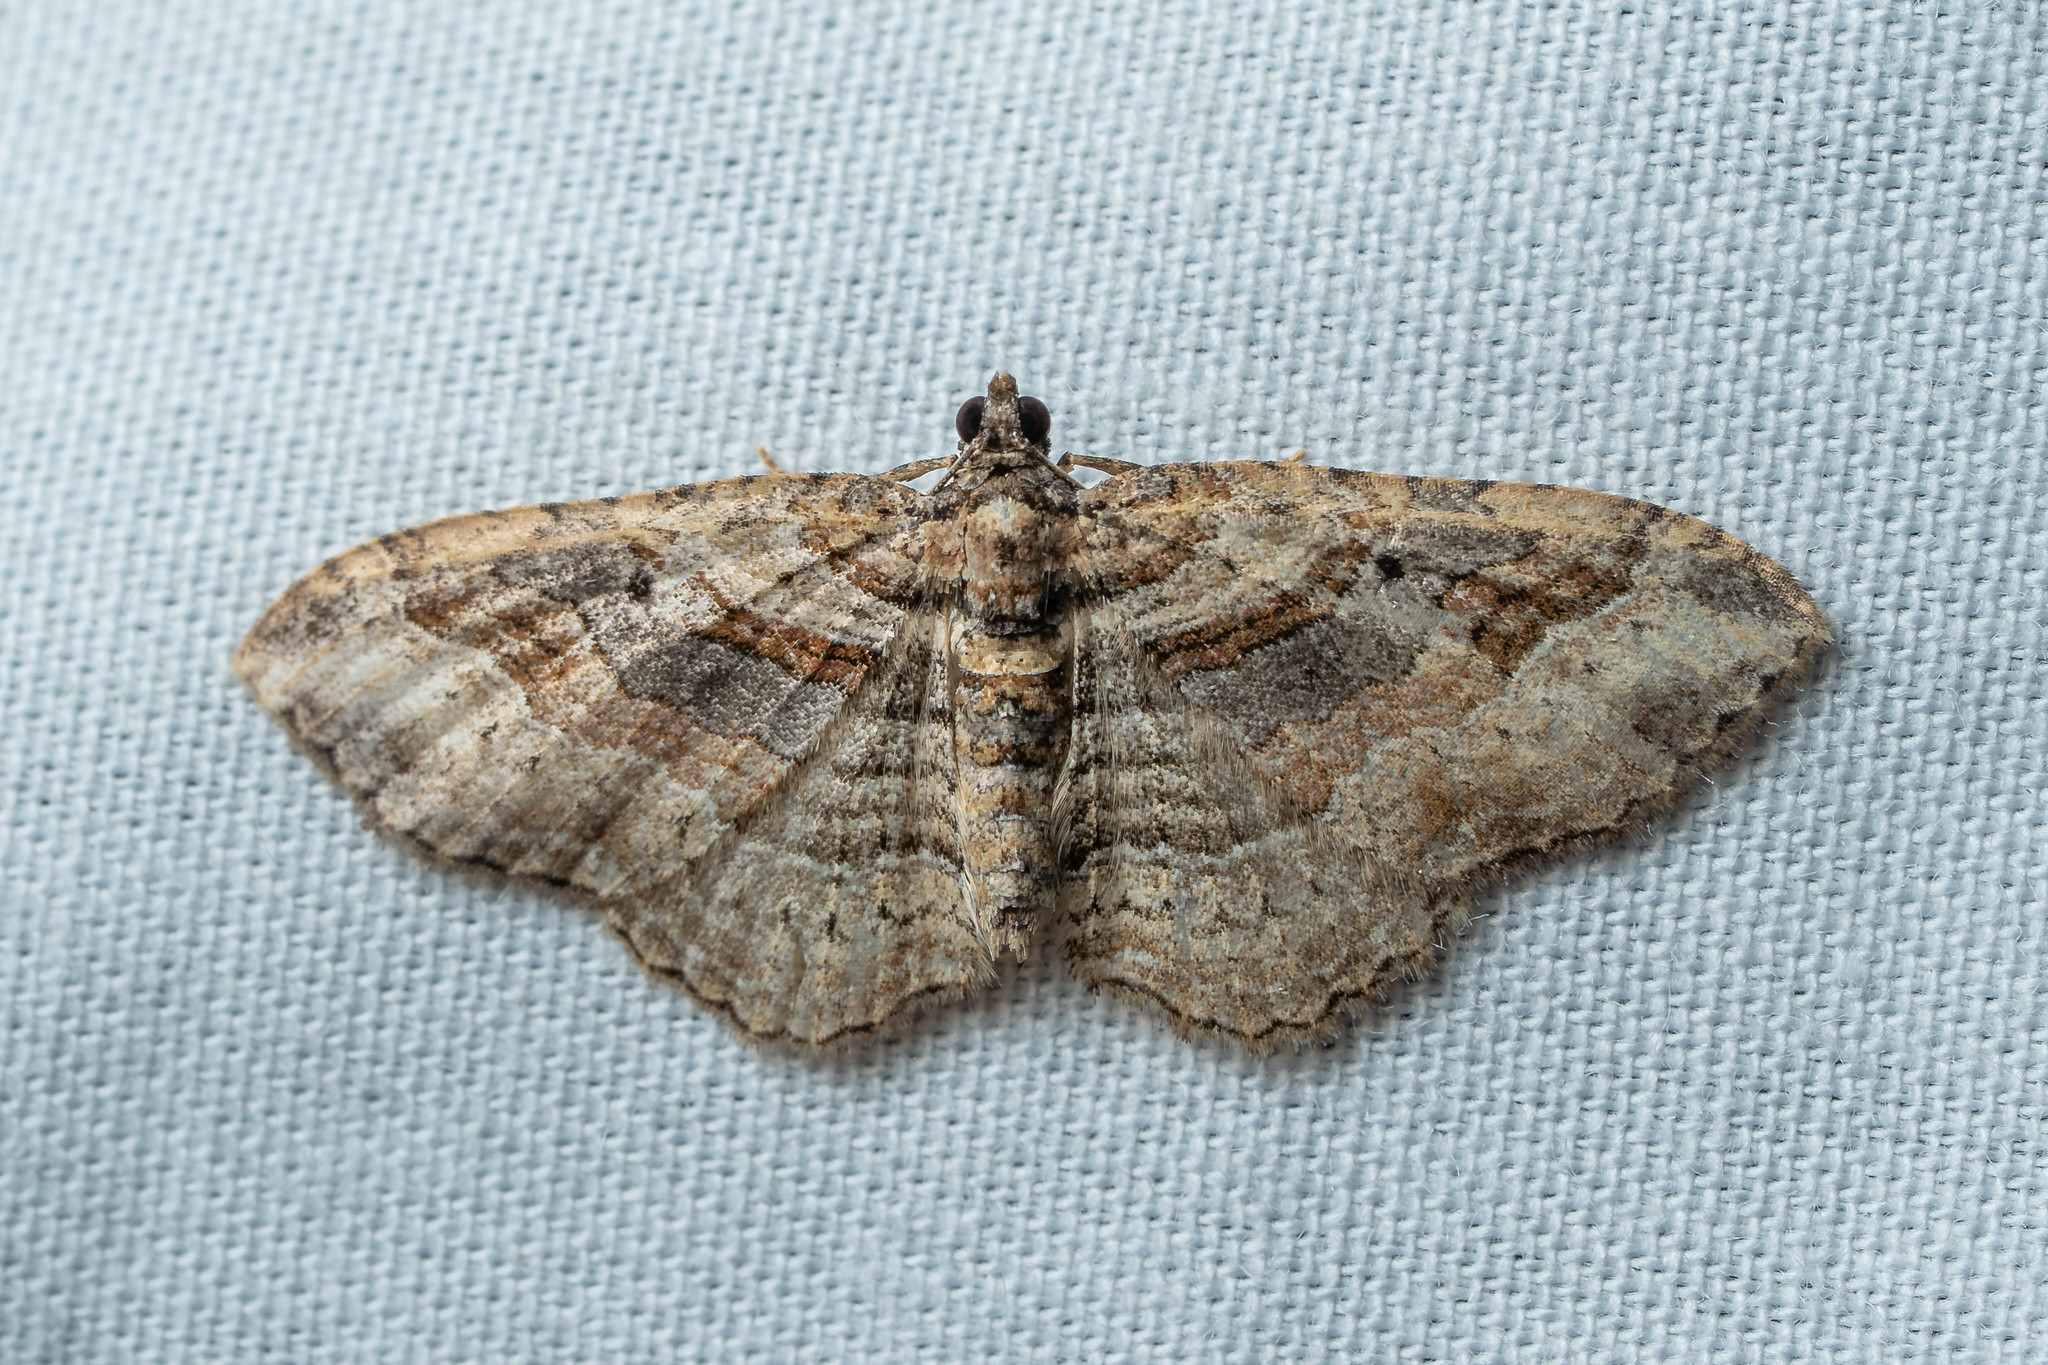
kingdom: Animalia
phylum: Arthropoda
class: Insecta
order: Lepidoptera
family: Geometridae
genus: Costaconvexa
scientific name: Costaconvexa centrostrigaria
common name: Bent-line carpet
